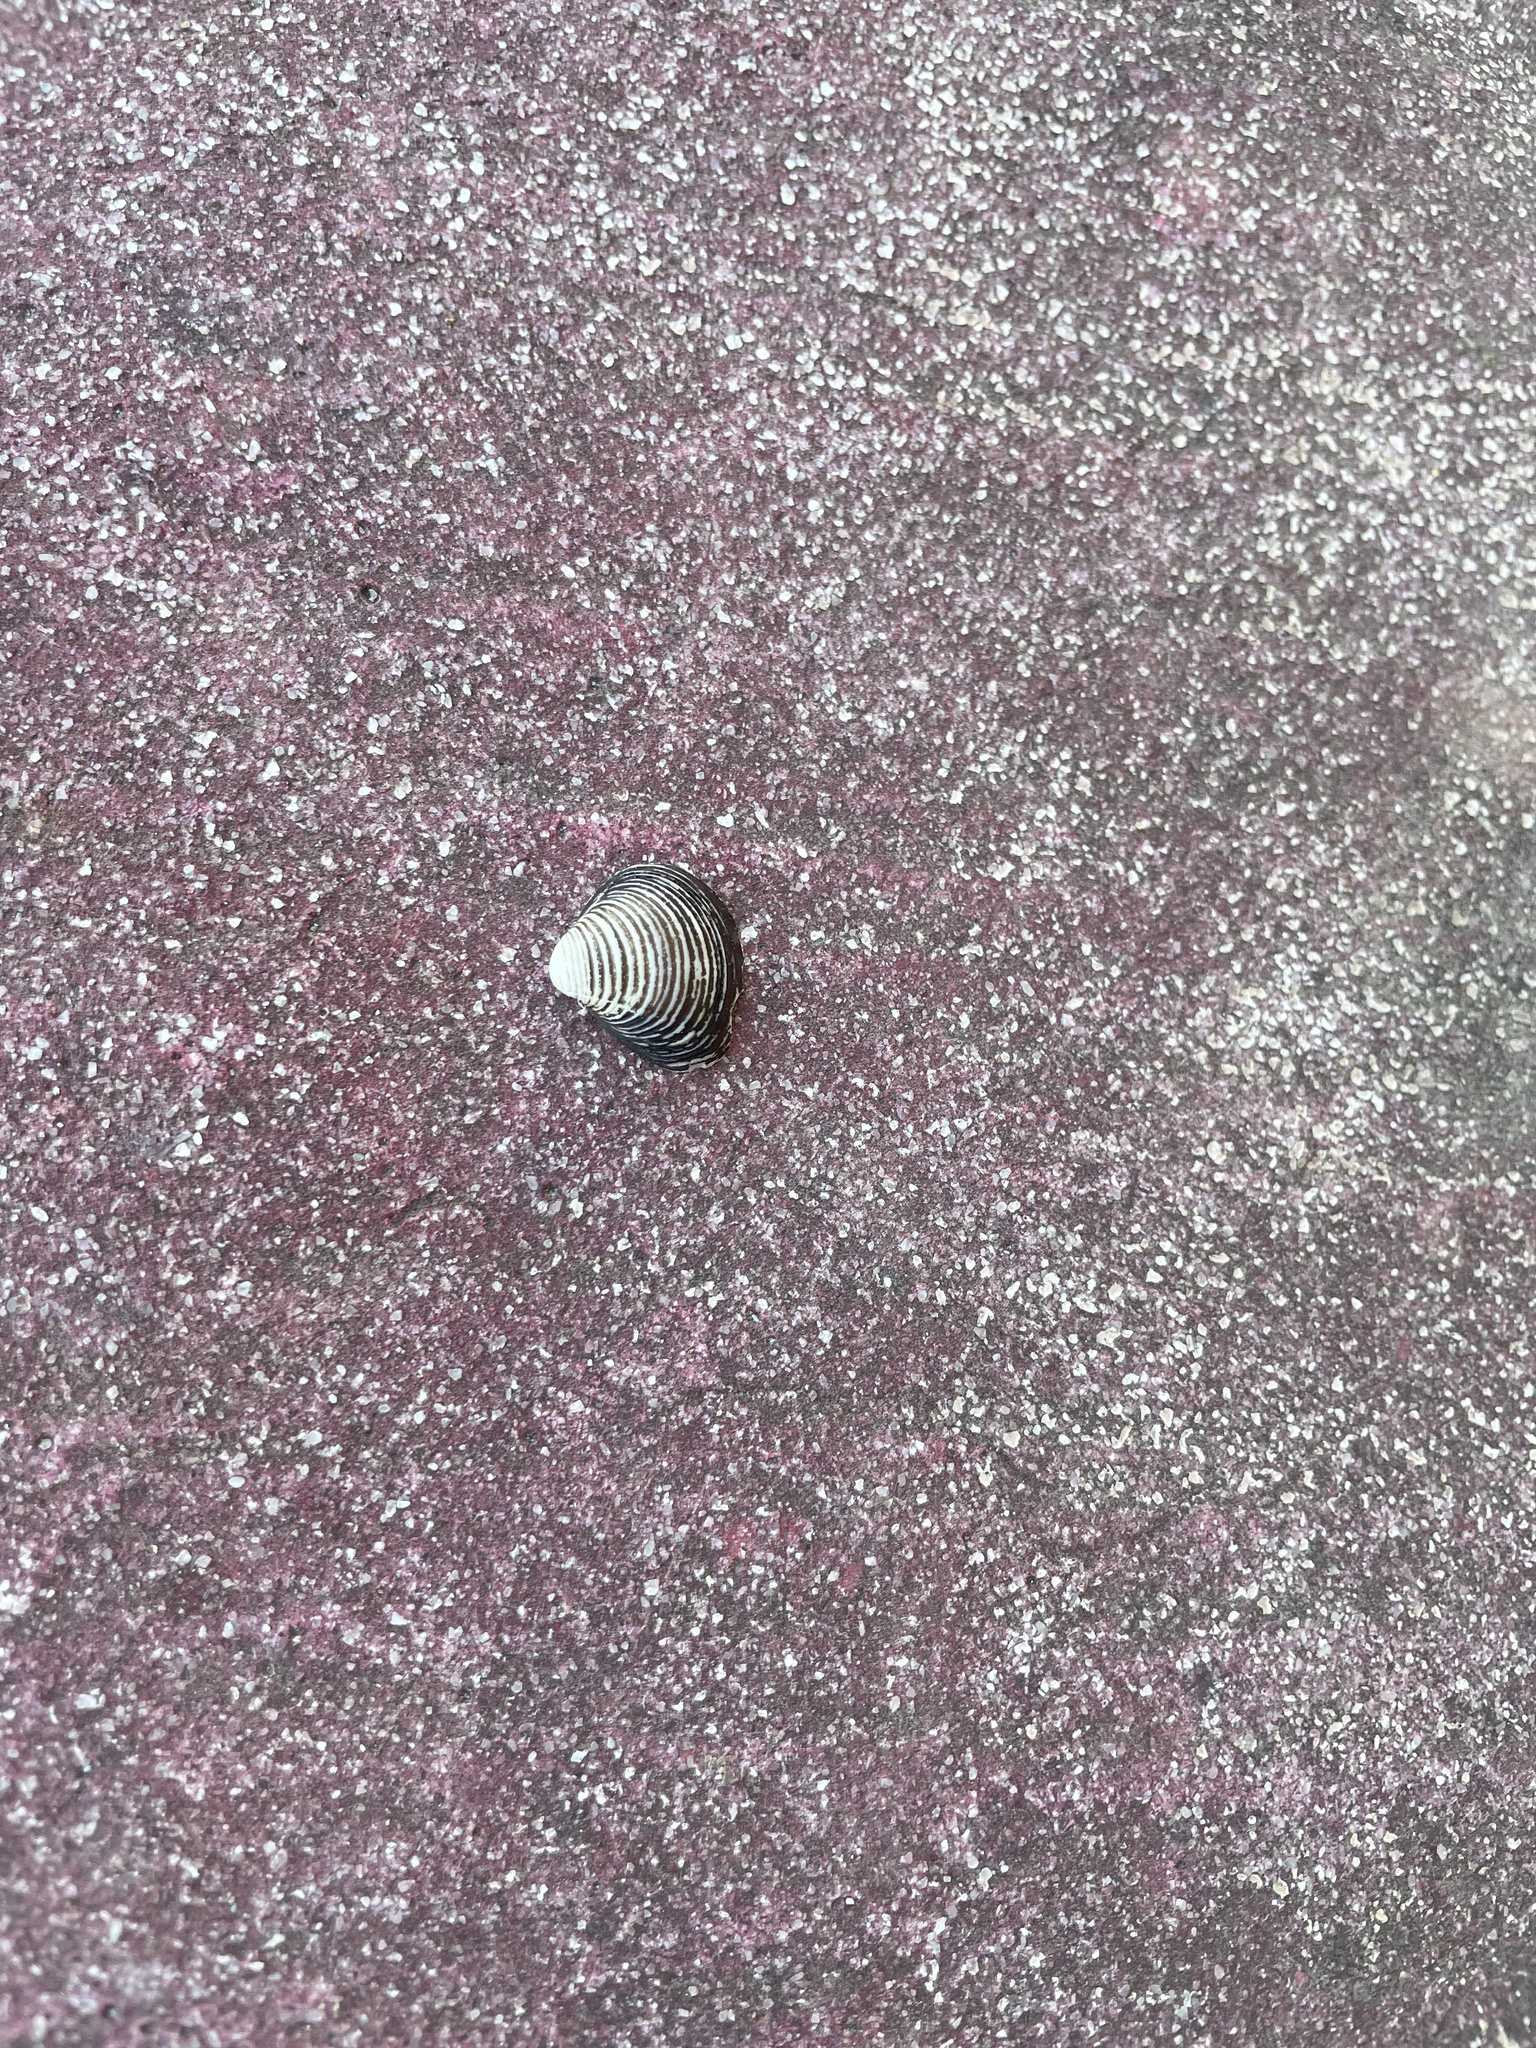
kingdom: Animalia
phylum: Mollusca
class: Bivalvia
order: Venerida
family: Cyrenidae
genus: Corbicula
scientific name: Corbicula fluminea
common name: Asian clam
